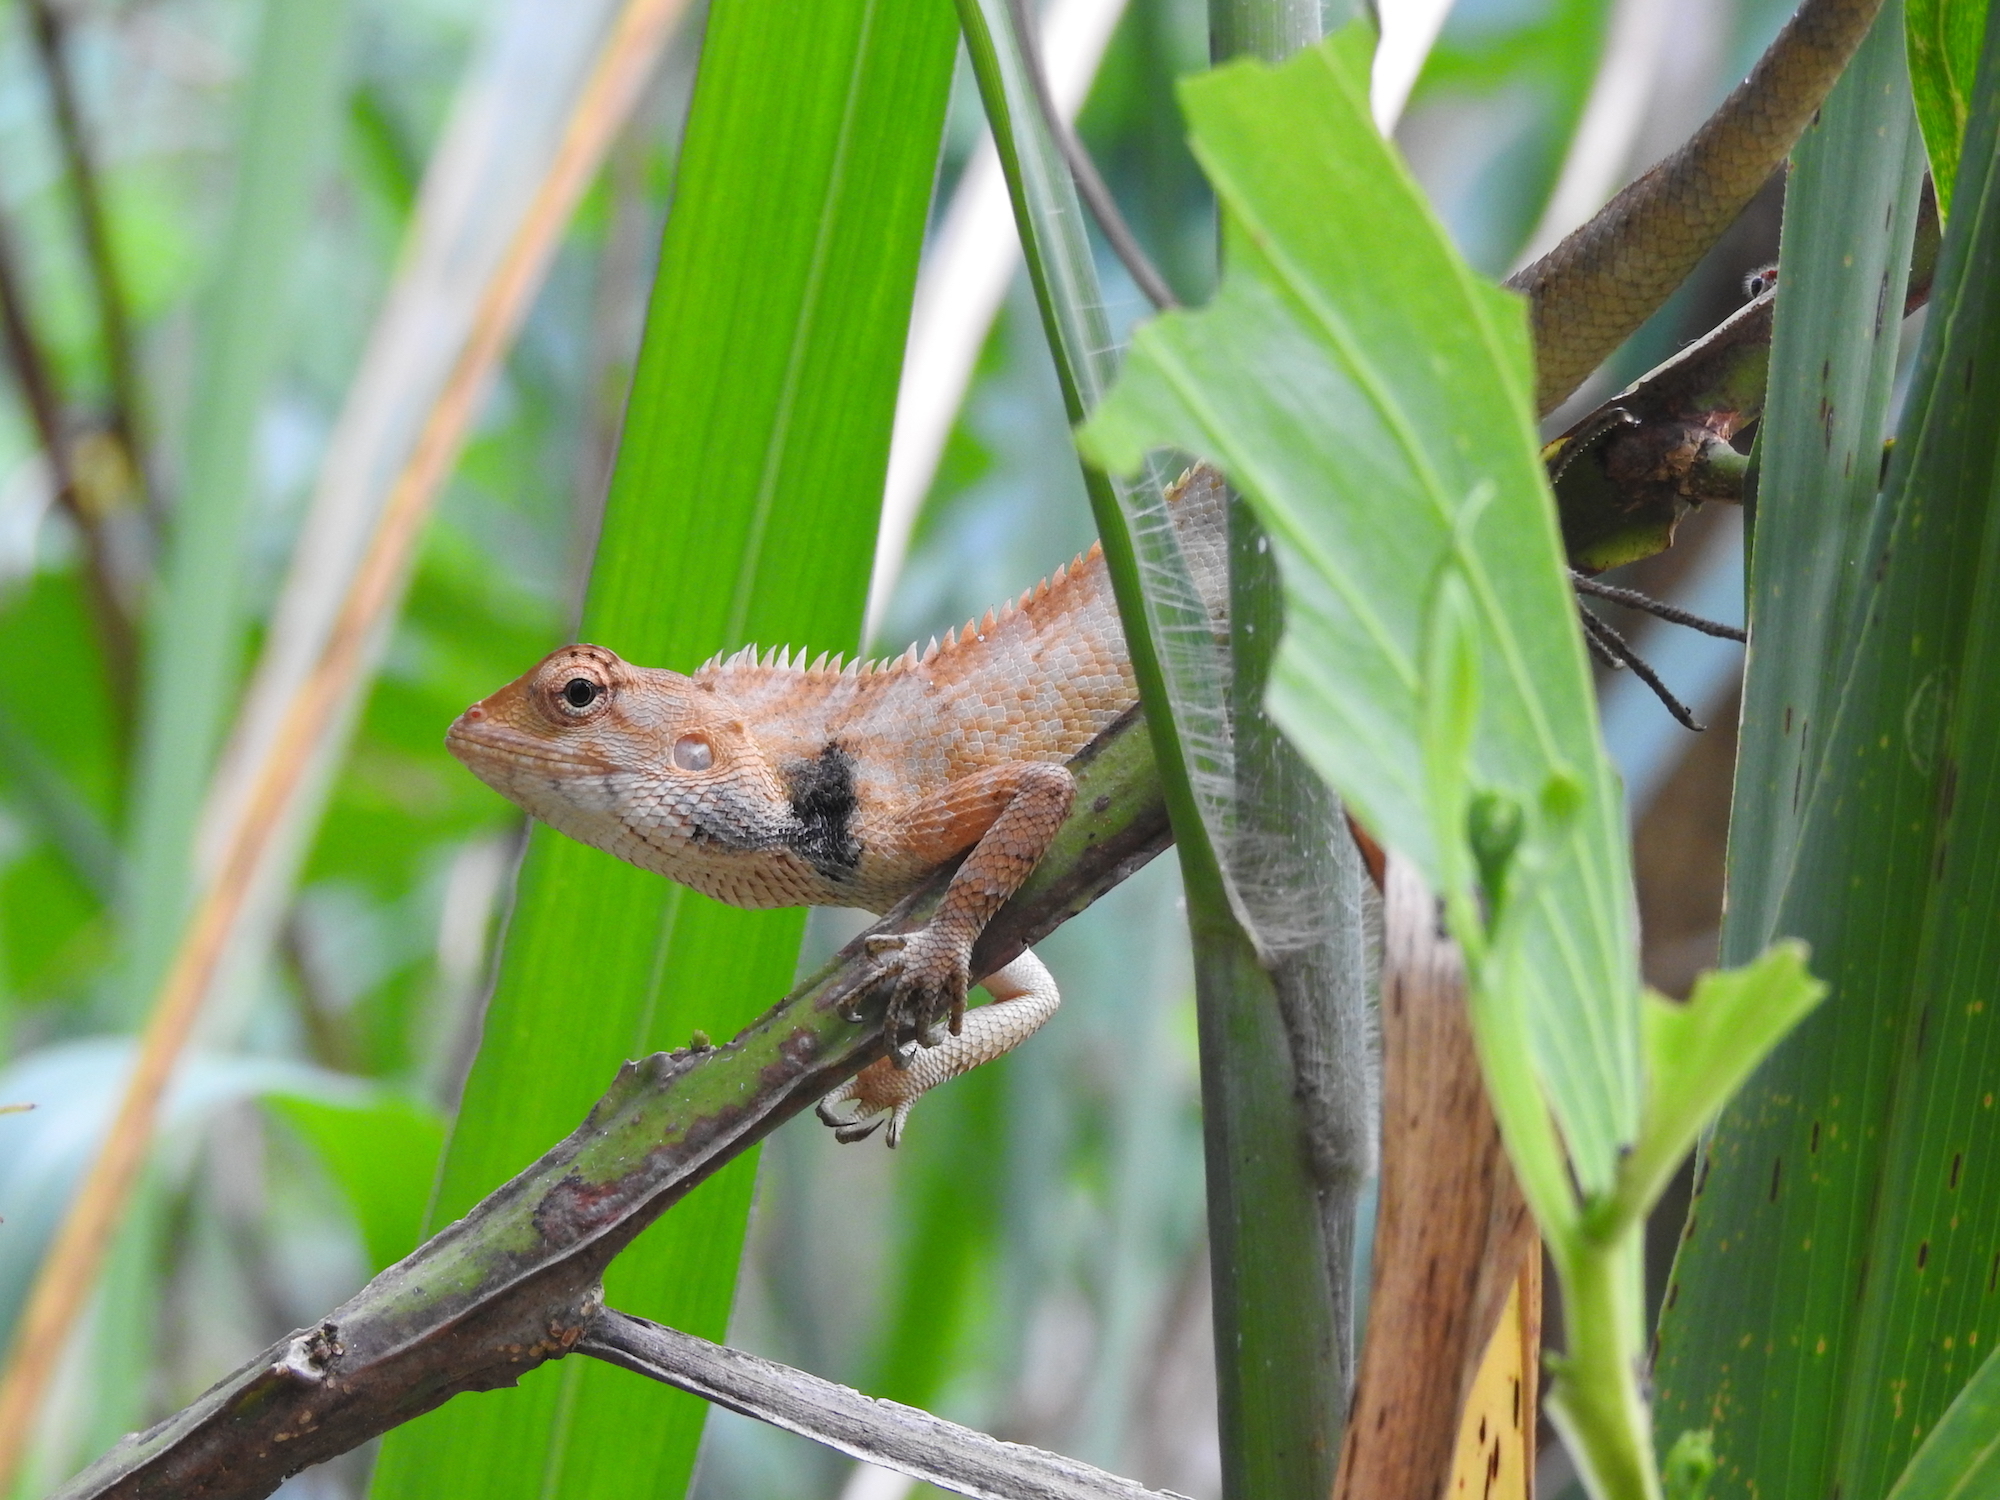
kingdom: Animalia
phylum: Chordata
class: Squamata
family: Agamidae
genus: Calotes
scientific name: Calotes versicolor
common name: Oriental garden lizard
